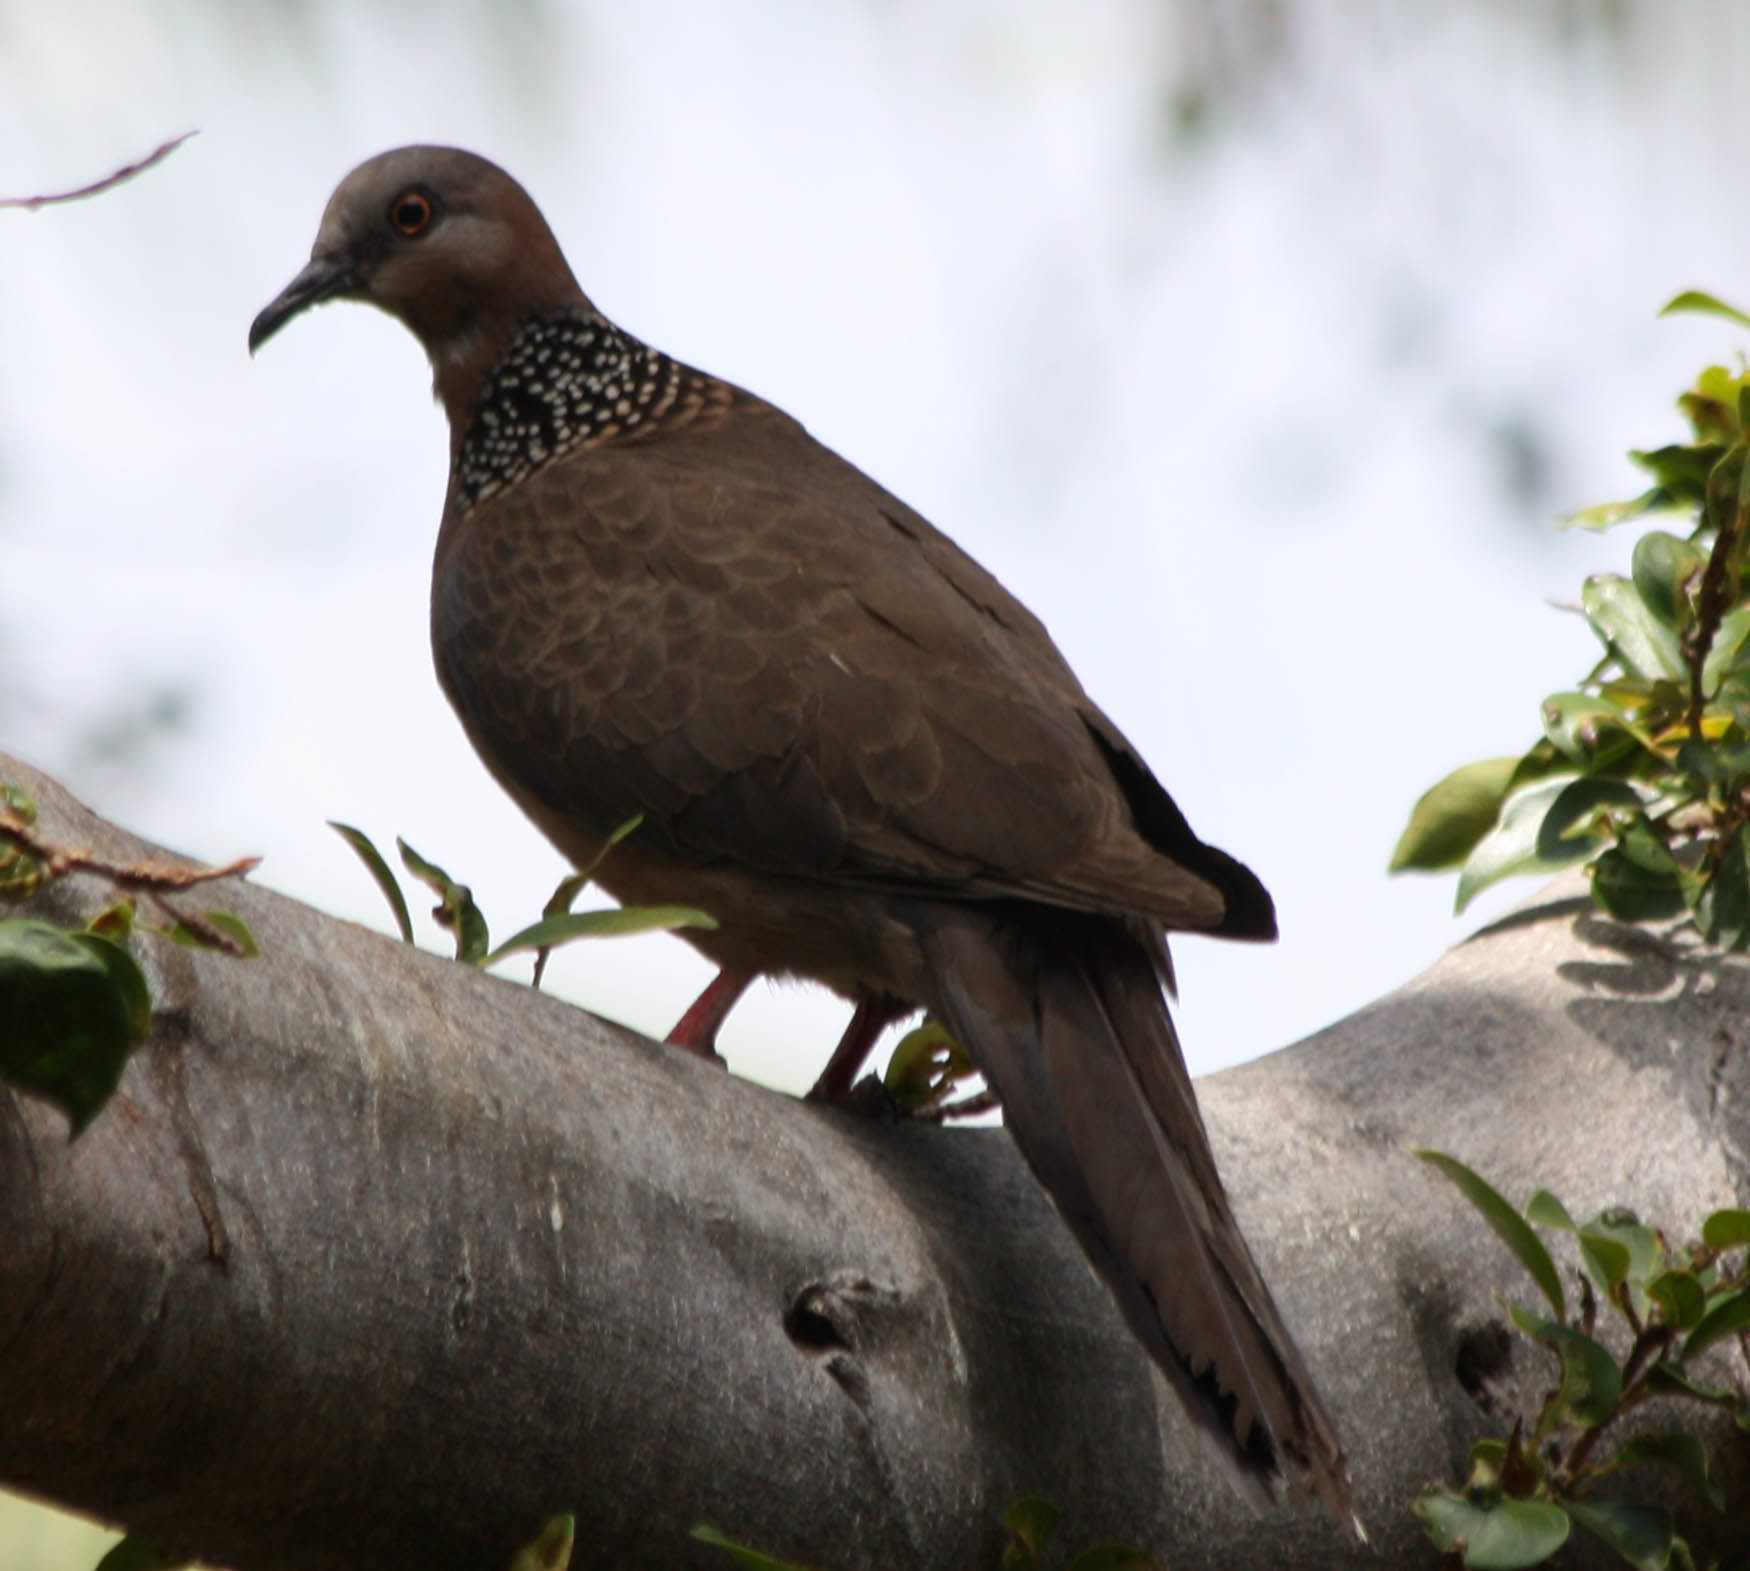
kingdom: Animalia
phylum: Chordata
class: Aves
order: Columbiformes
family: Columbidae
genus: Spilopelia
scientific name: Spilopelia chinensis
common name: Spotted dove
